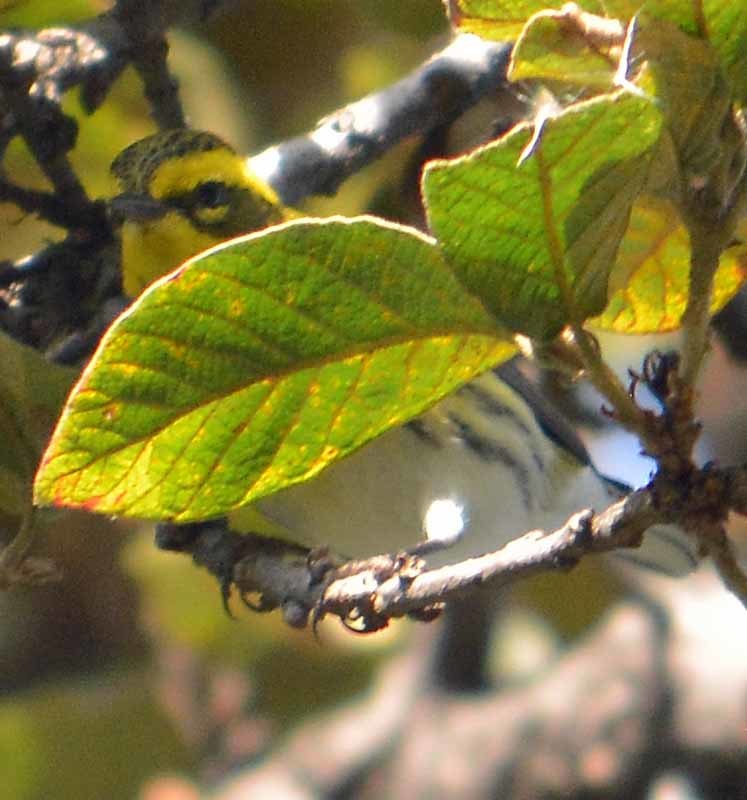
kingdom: Animalia
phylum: Chordata
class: Aves
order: Passeriformes
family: Parulidae
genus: Setophaga
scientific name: Setophaga townsendi
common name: Townsend's warbler
